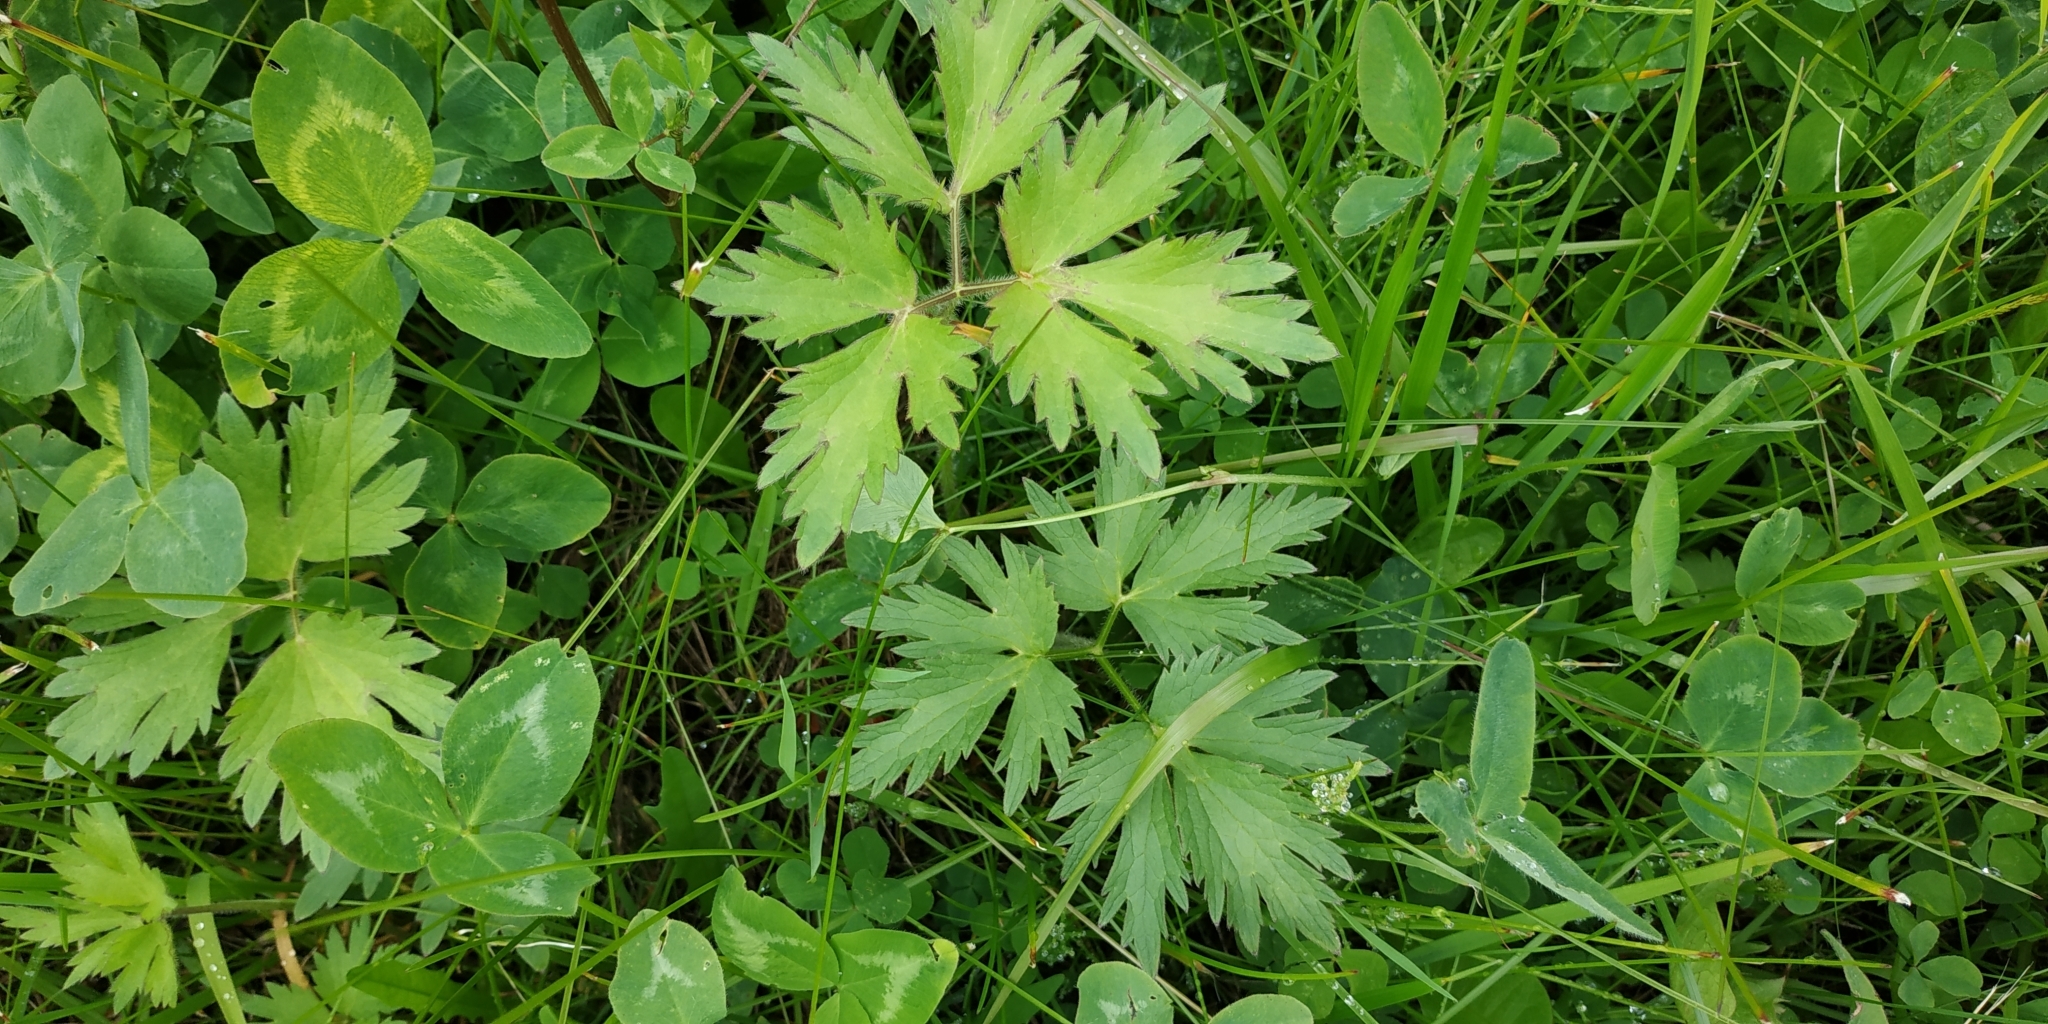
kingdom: Plantae
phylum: Tracheophyta
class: Magnoliopsida
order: Ranunculales
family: Ranunculaceae
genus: Ranunculus
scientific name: Ranunculus repens
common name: Creeping buttercup
